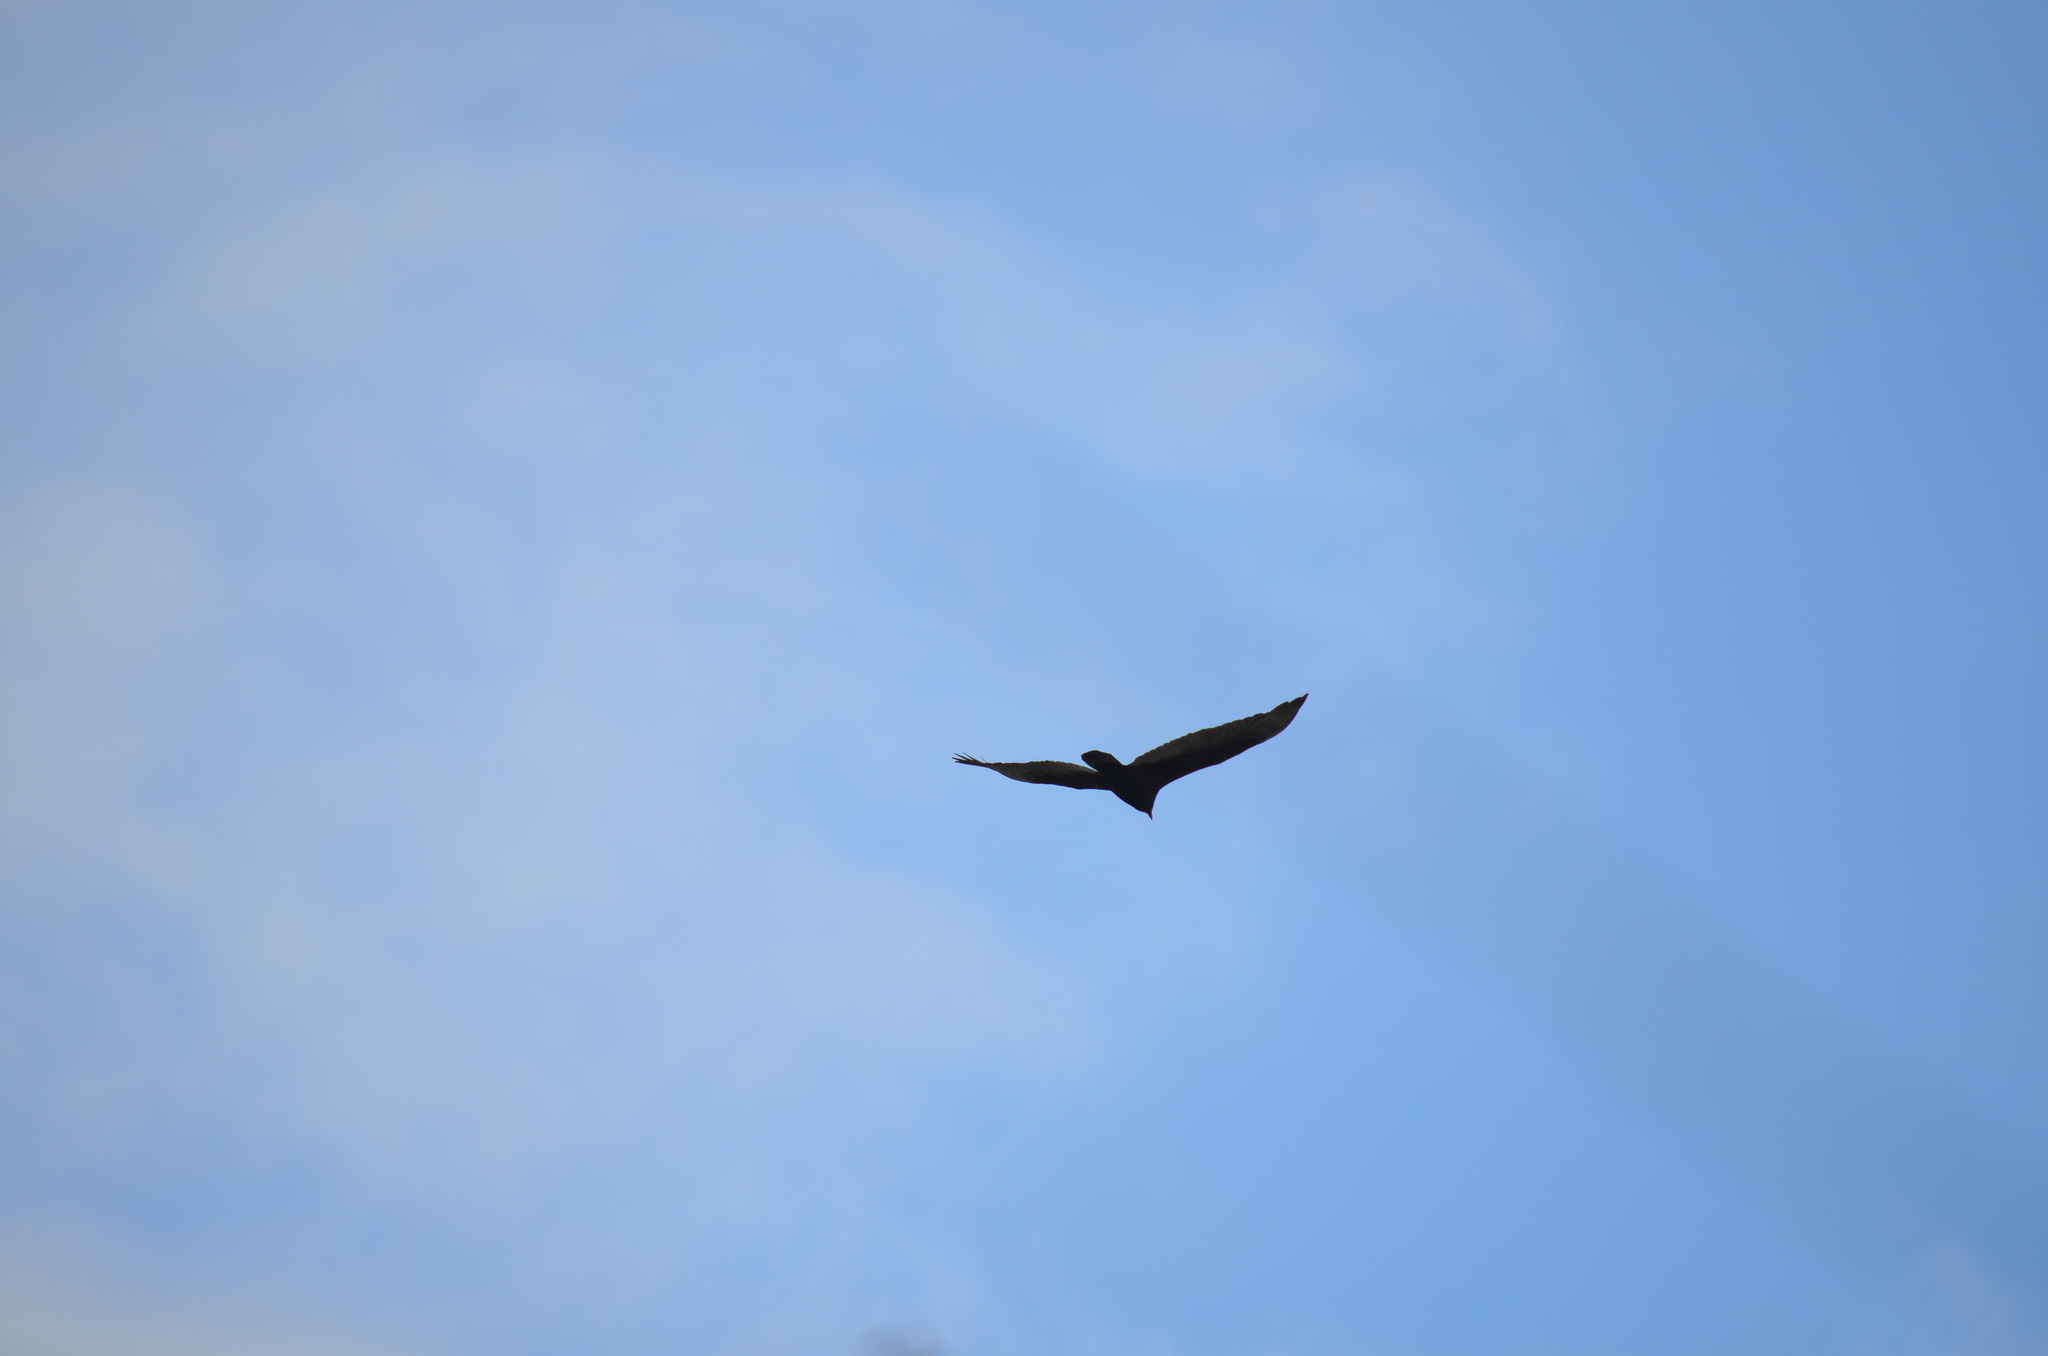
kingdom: Animalia
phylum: Chordata
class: Aves
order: Accipitriformes
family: Cathartidae
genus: Cathartes
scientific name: Cathartes aura
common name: Turkey vulture
